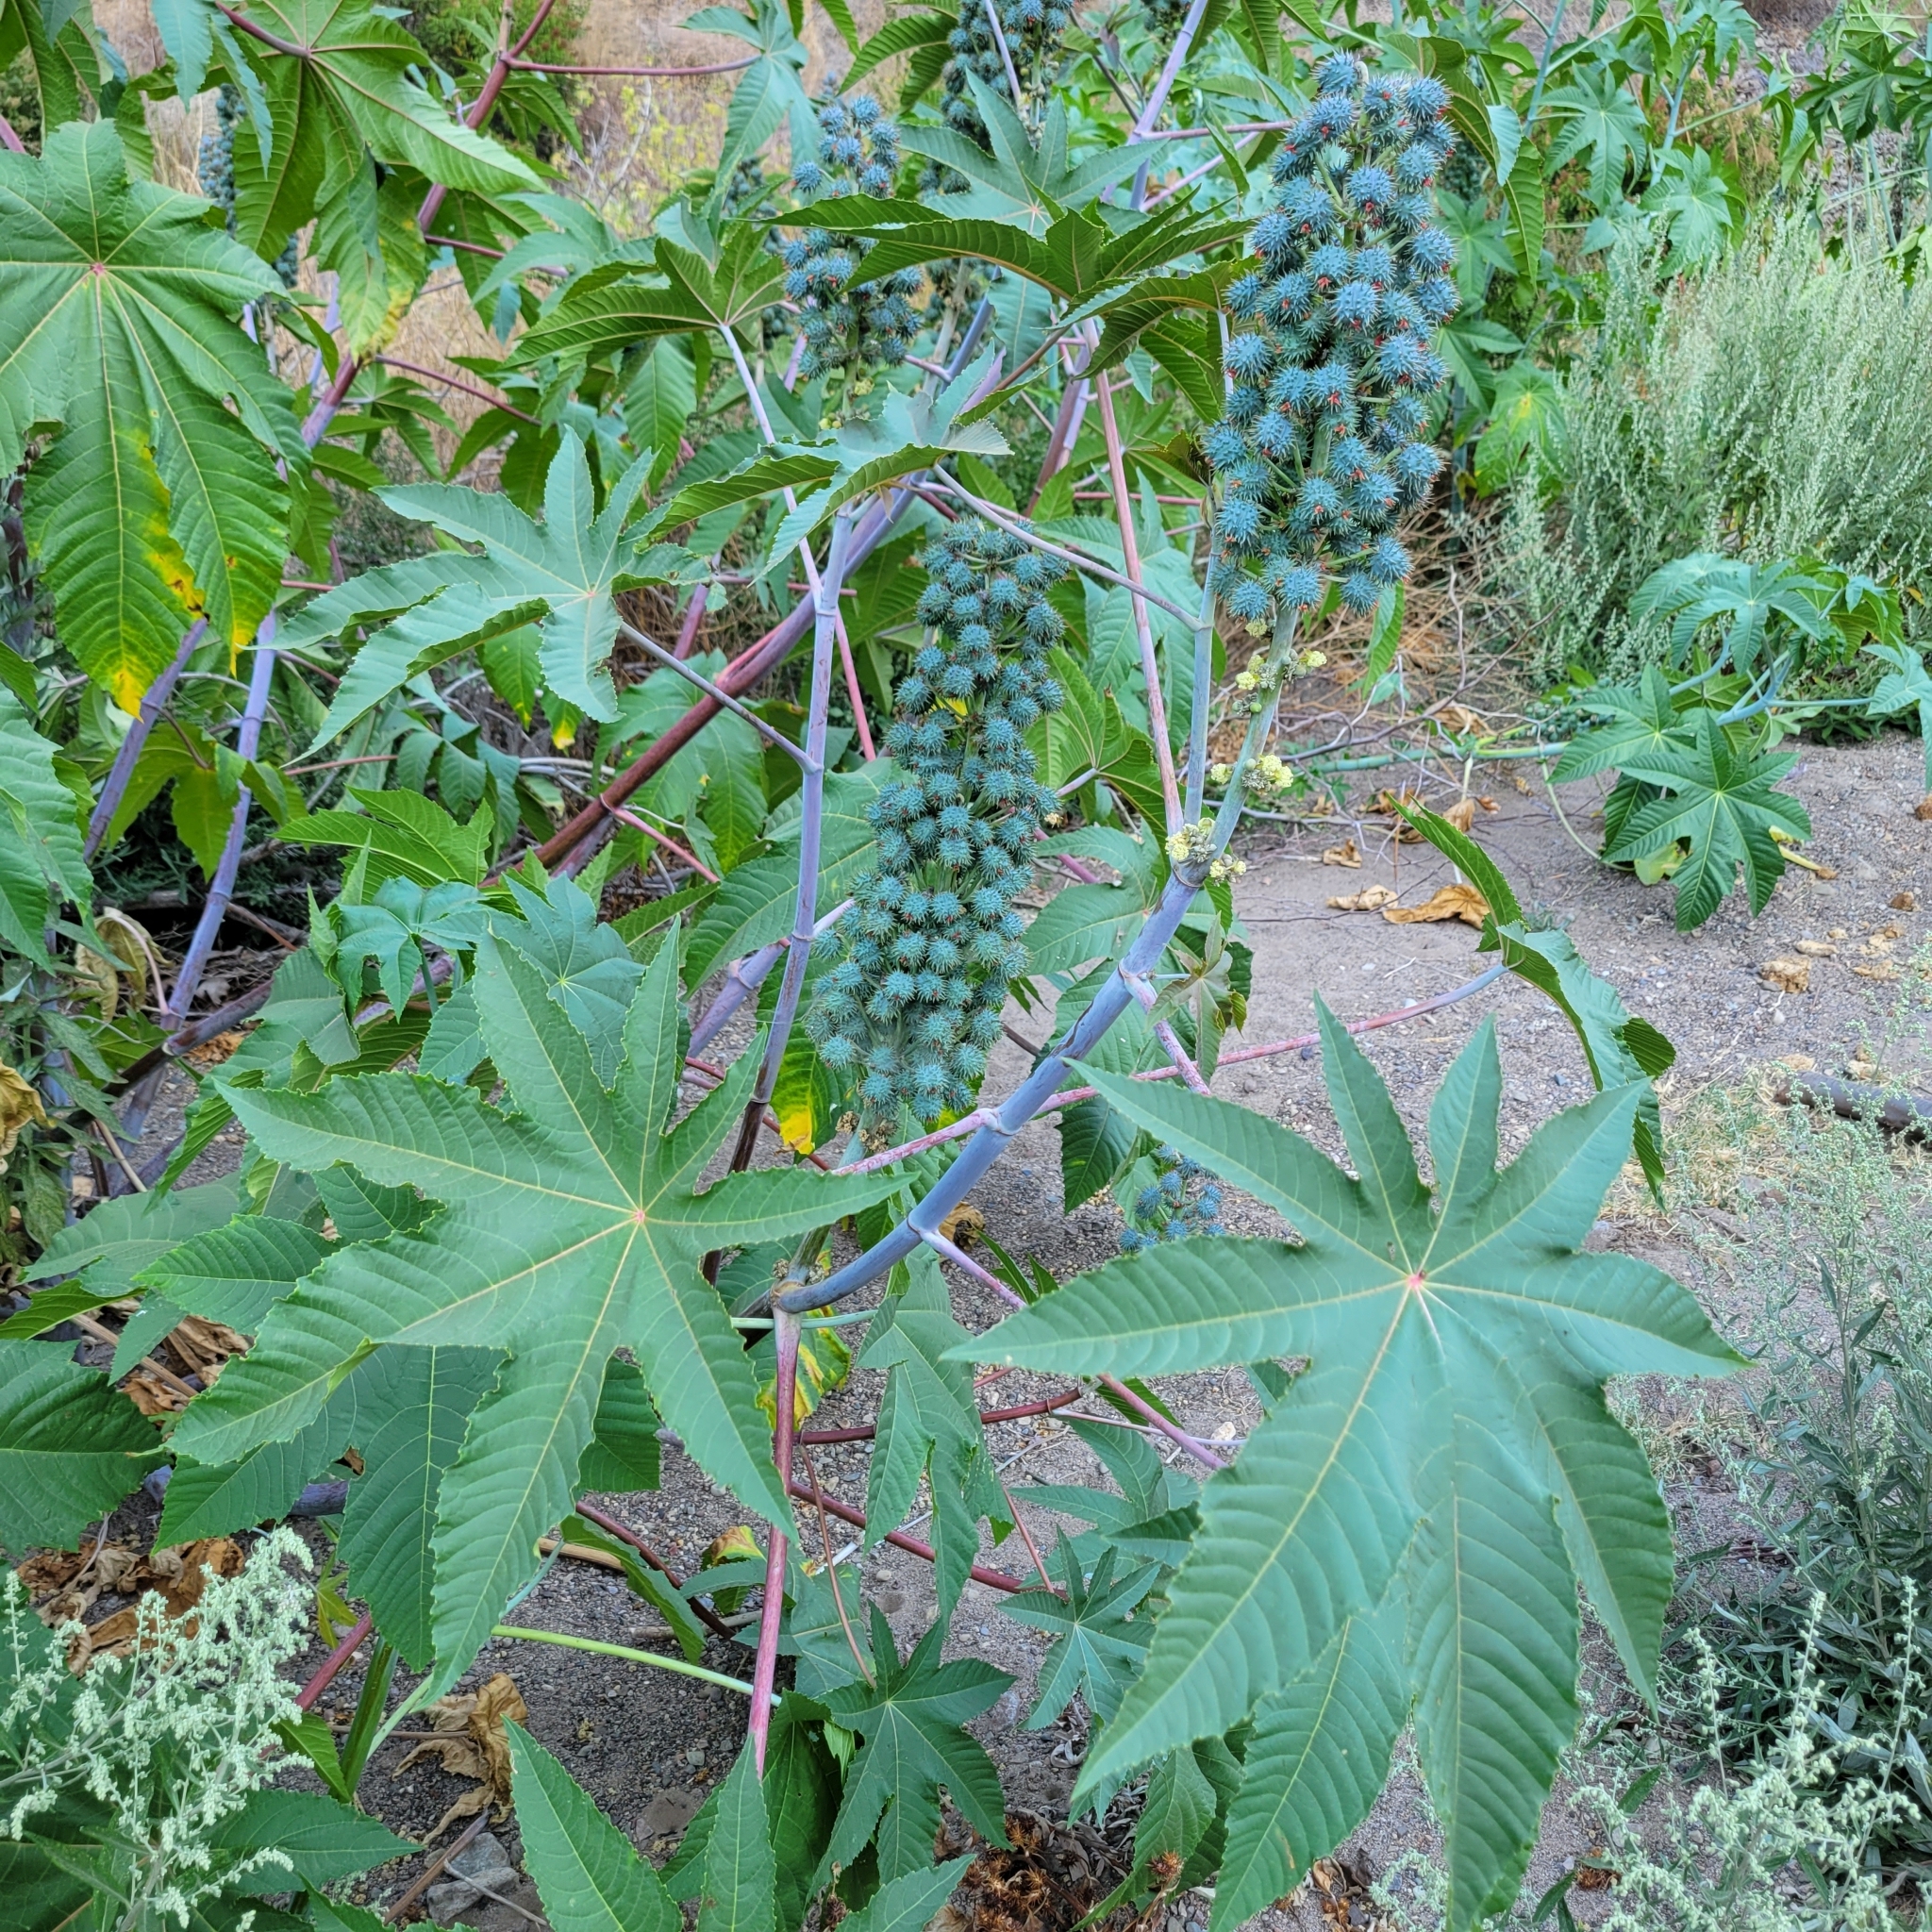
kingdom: Plantae
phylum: Tracheophyta
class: Magnoliopsida
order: Malpighiales
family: Euphorbiaceae
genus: Ricinus
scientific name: Ricinus communis
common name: Castor-oil-plant
